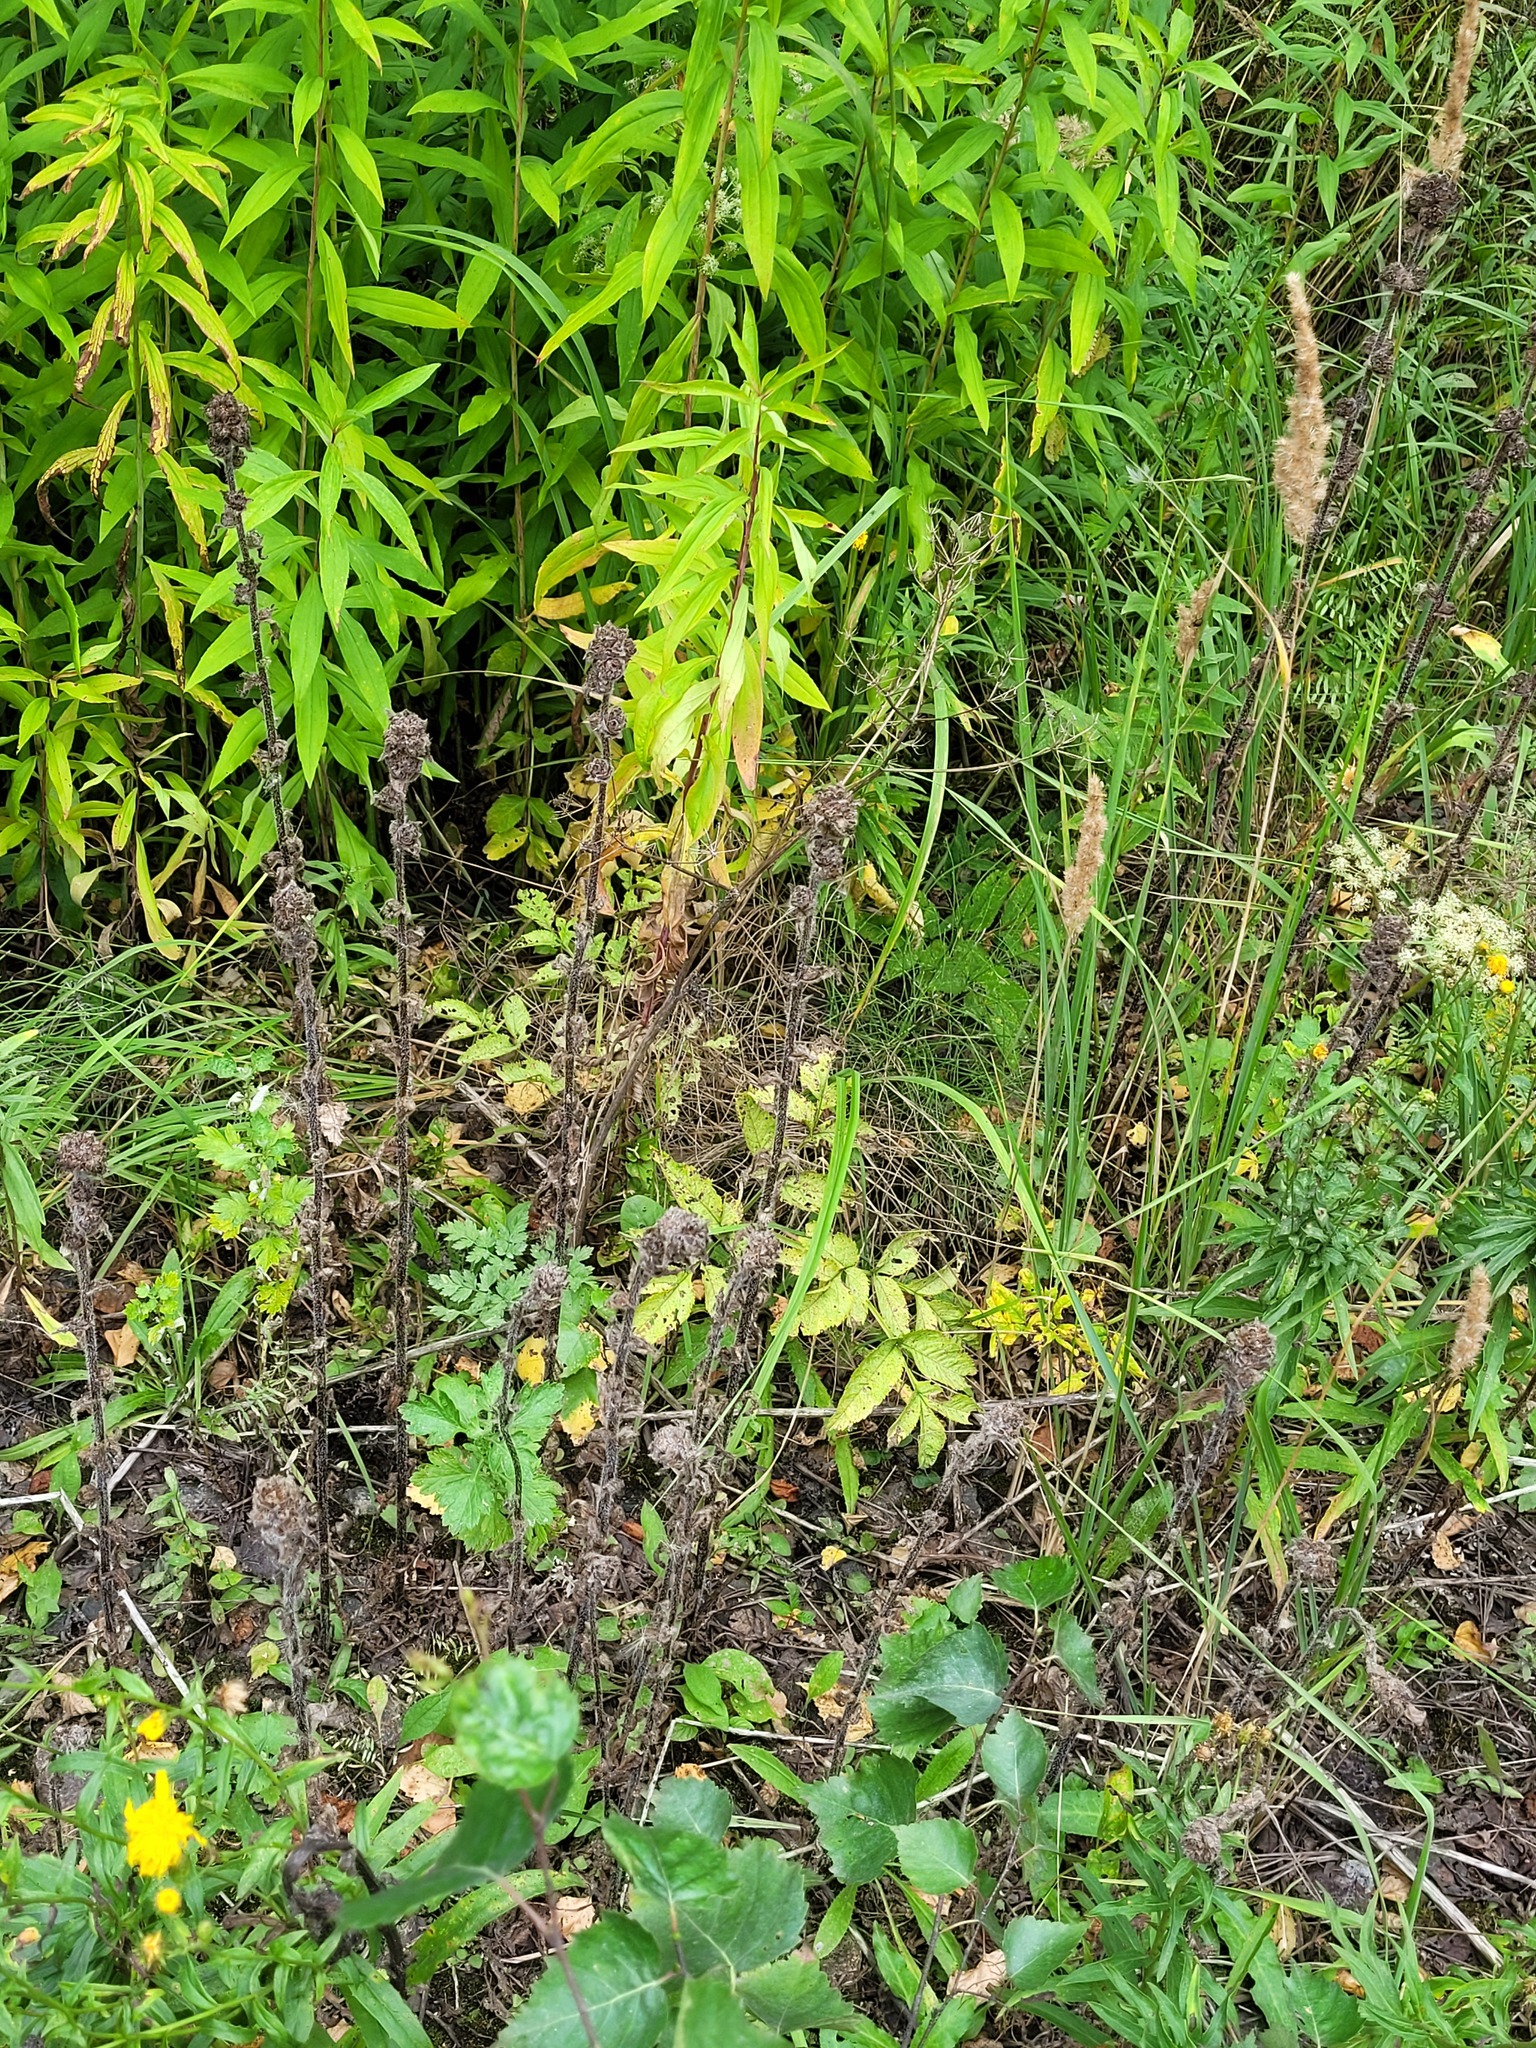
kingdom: Plantae
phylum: Tracheophyta
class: Magnoliopsida
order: Asterales
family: Campanulaceae
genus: Campanula
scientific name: Campanula cervicaria
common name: Bristly bellflower
